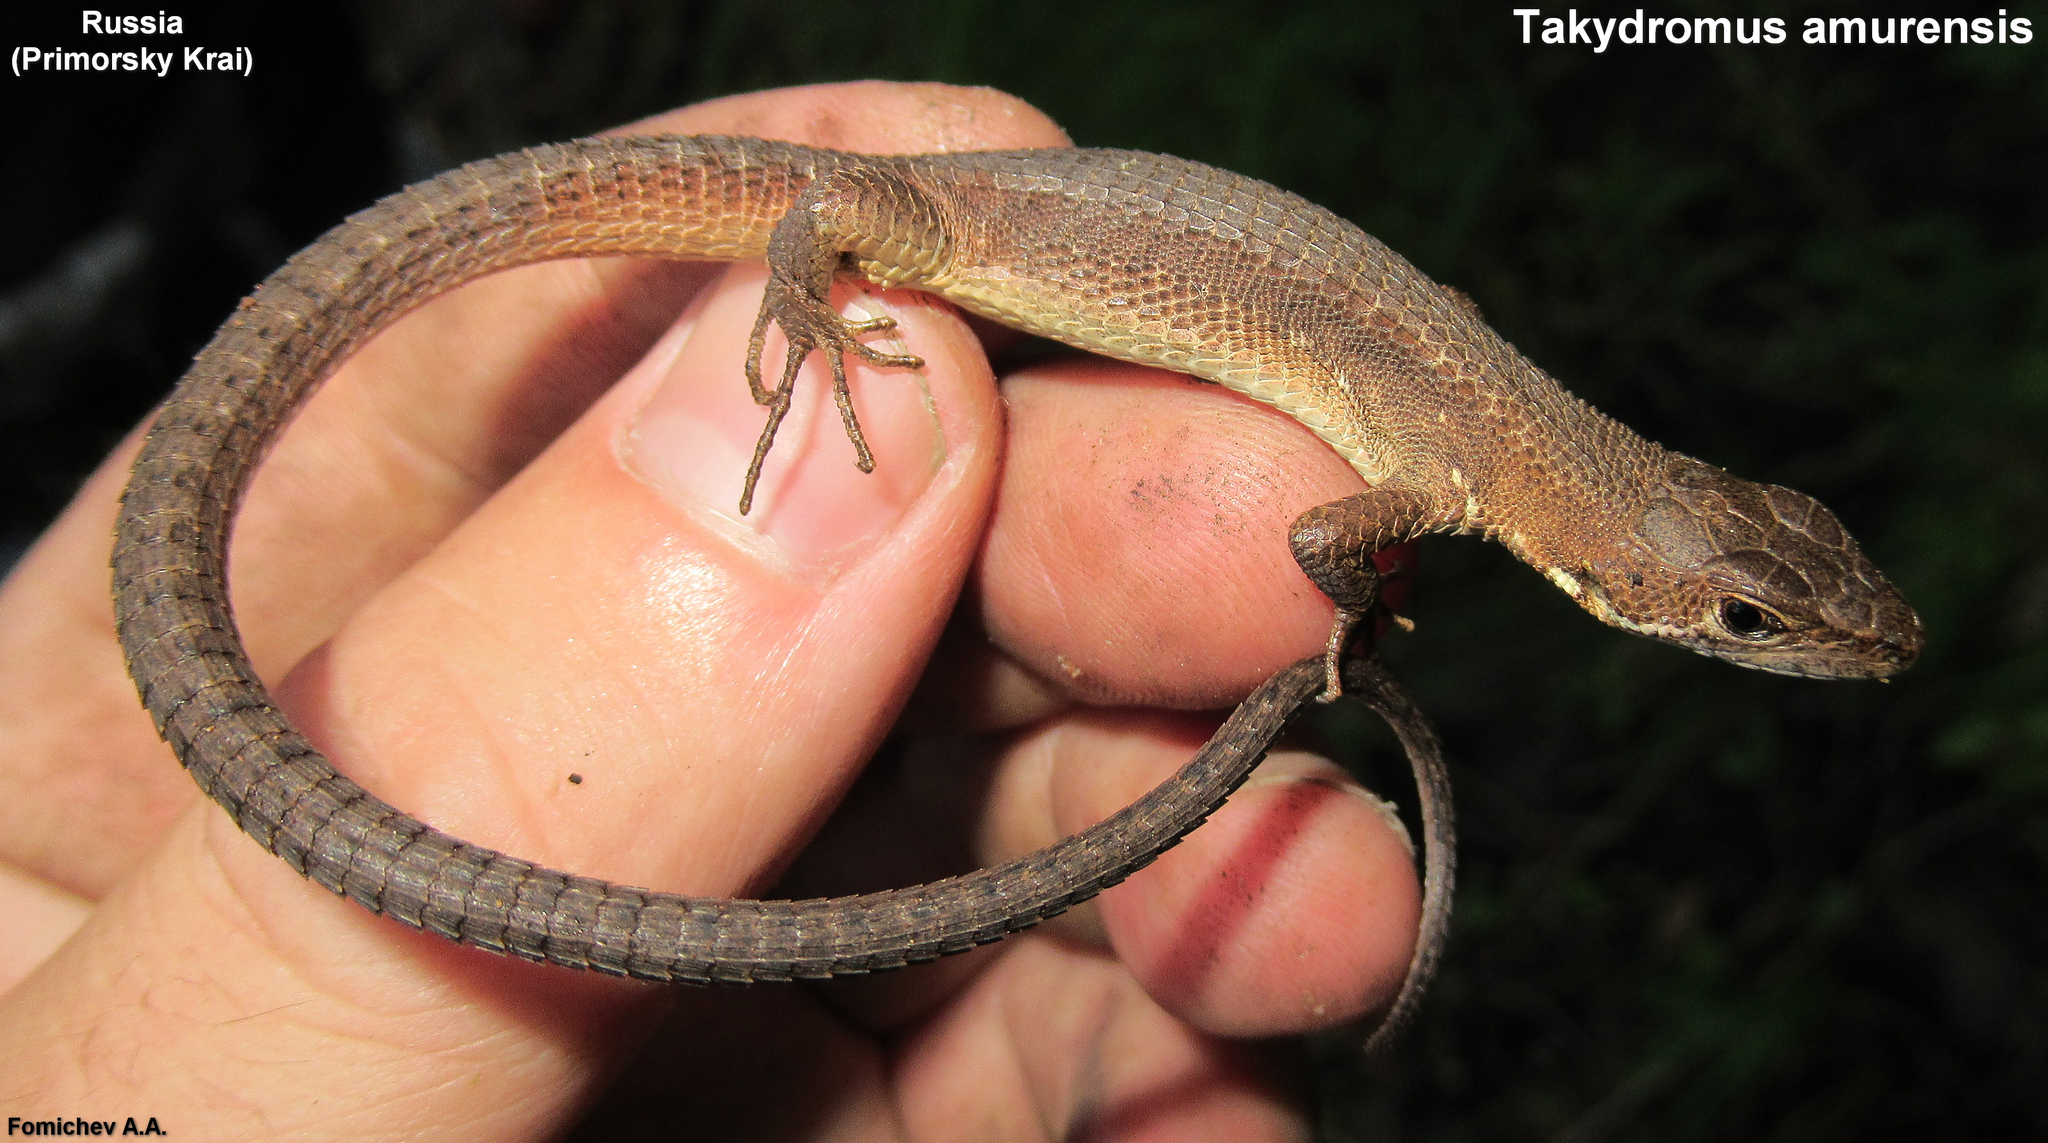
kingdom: Animalia
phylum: Chordata
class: Squamata
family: Lacertidae
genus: Takydromus
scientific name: Takydromus amurensis
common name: Amur grass lizard
